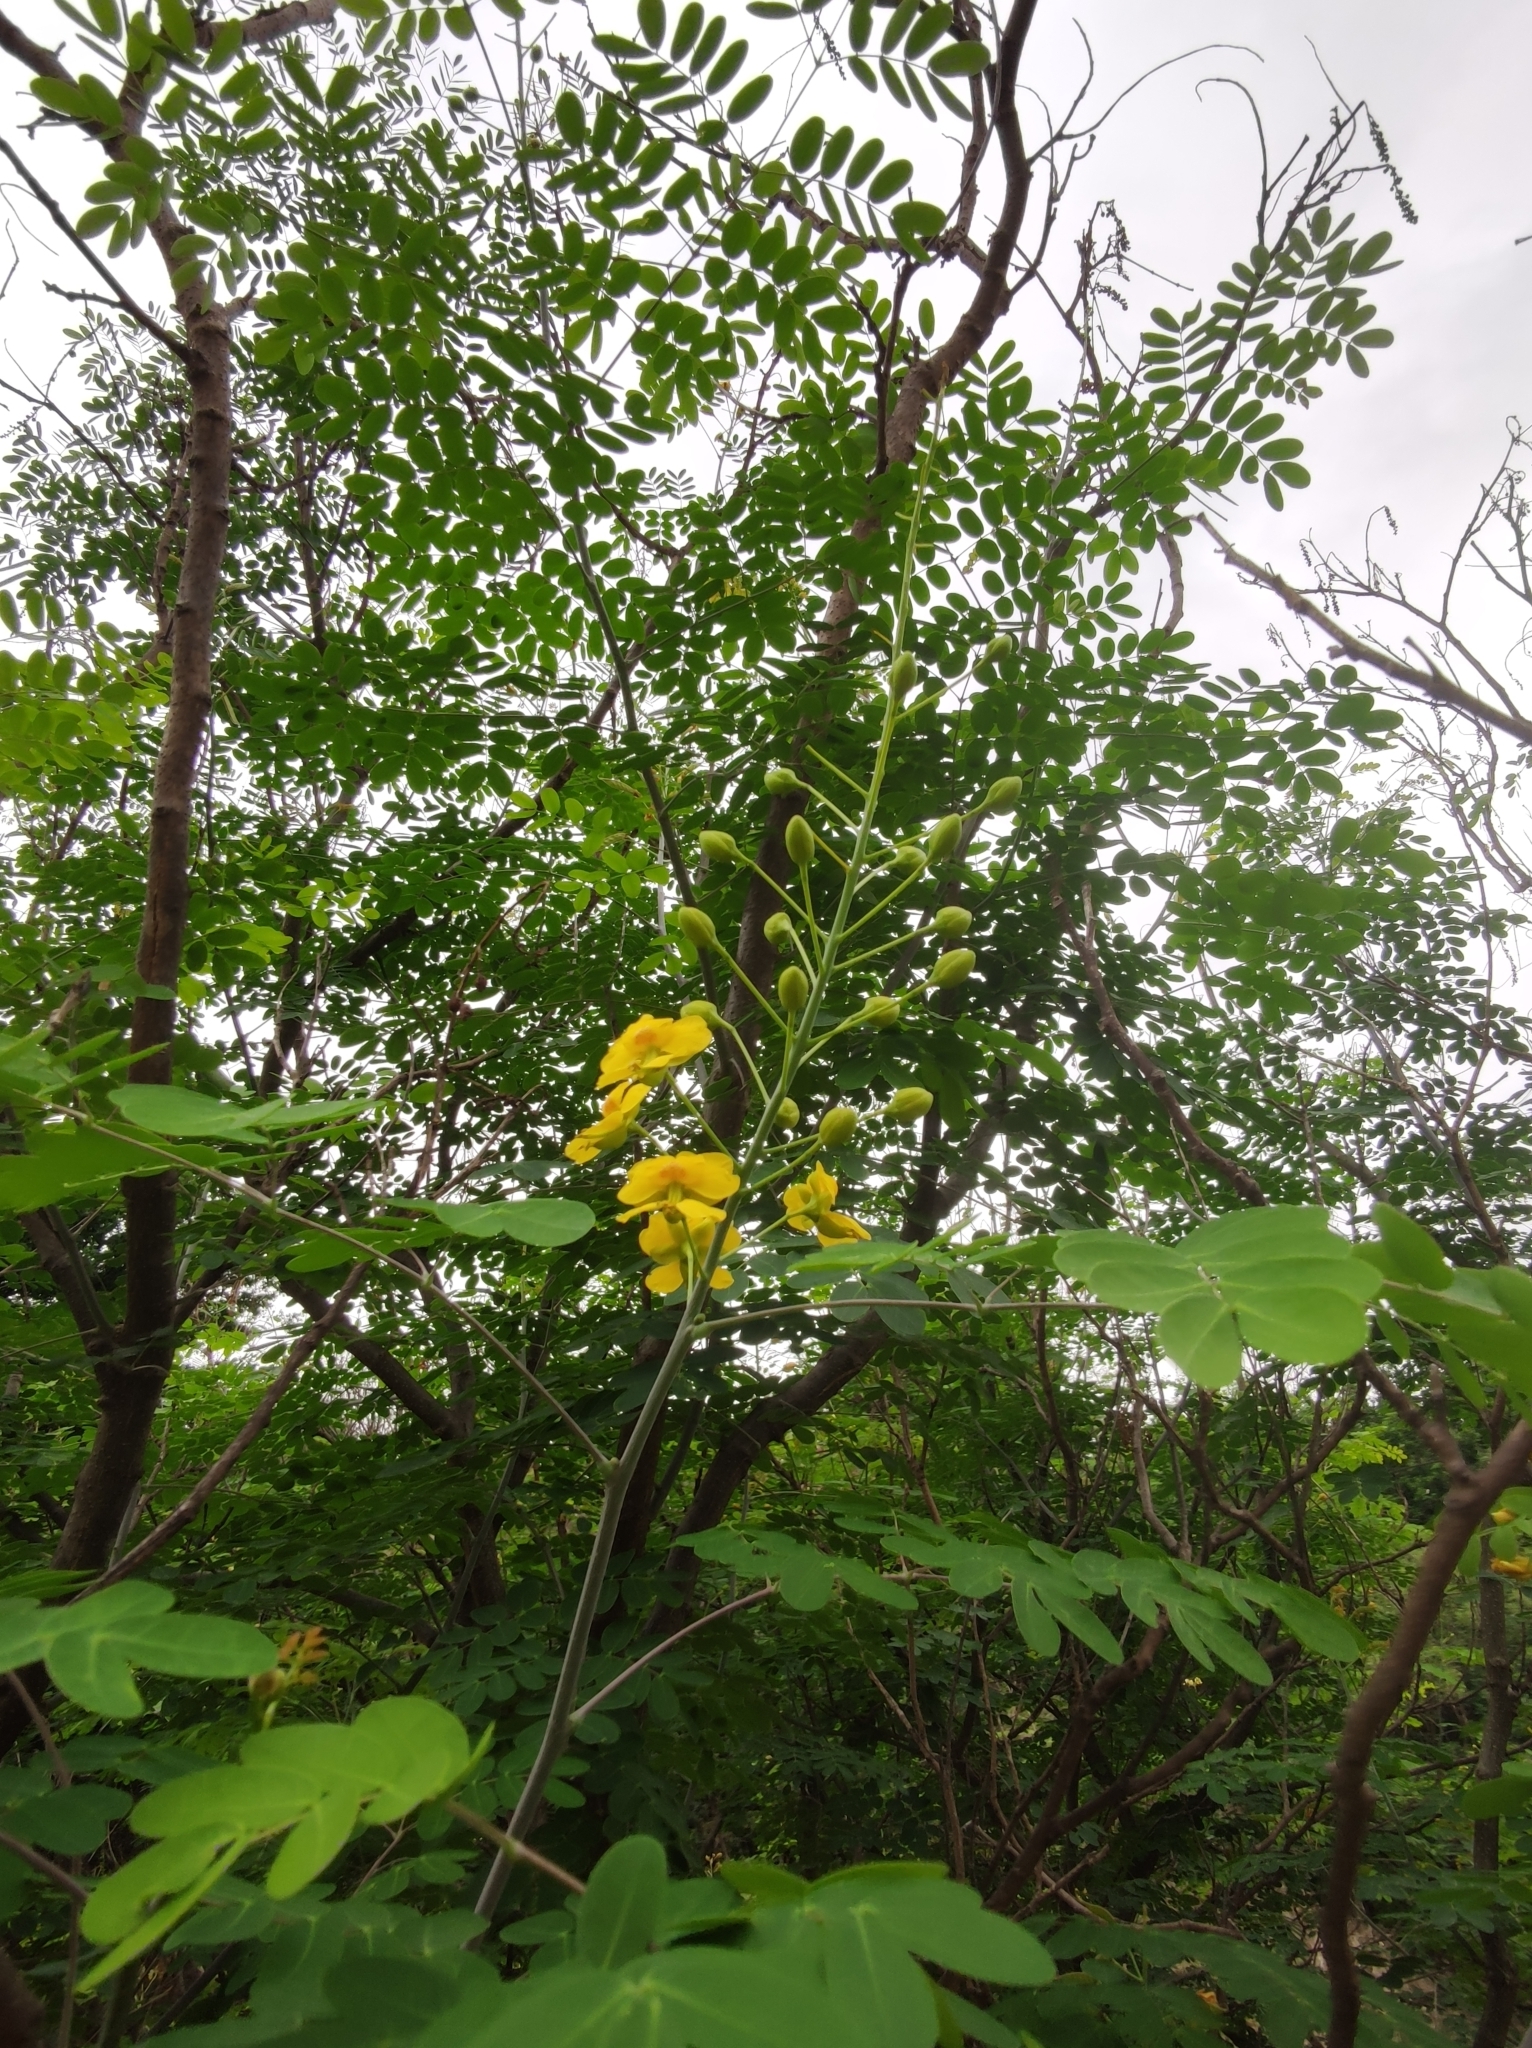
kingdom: Plantae
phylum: Tracheophyta
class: Magnoliopsida
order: Fabales
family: Fabaceae
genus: Erythrostemon
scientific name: Erythrostemon mexicanus
